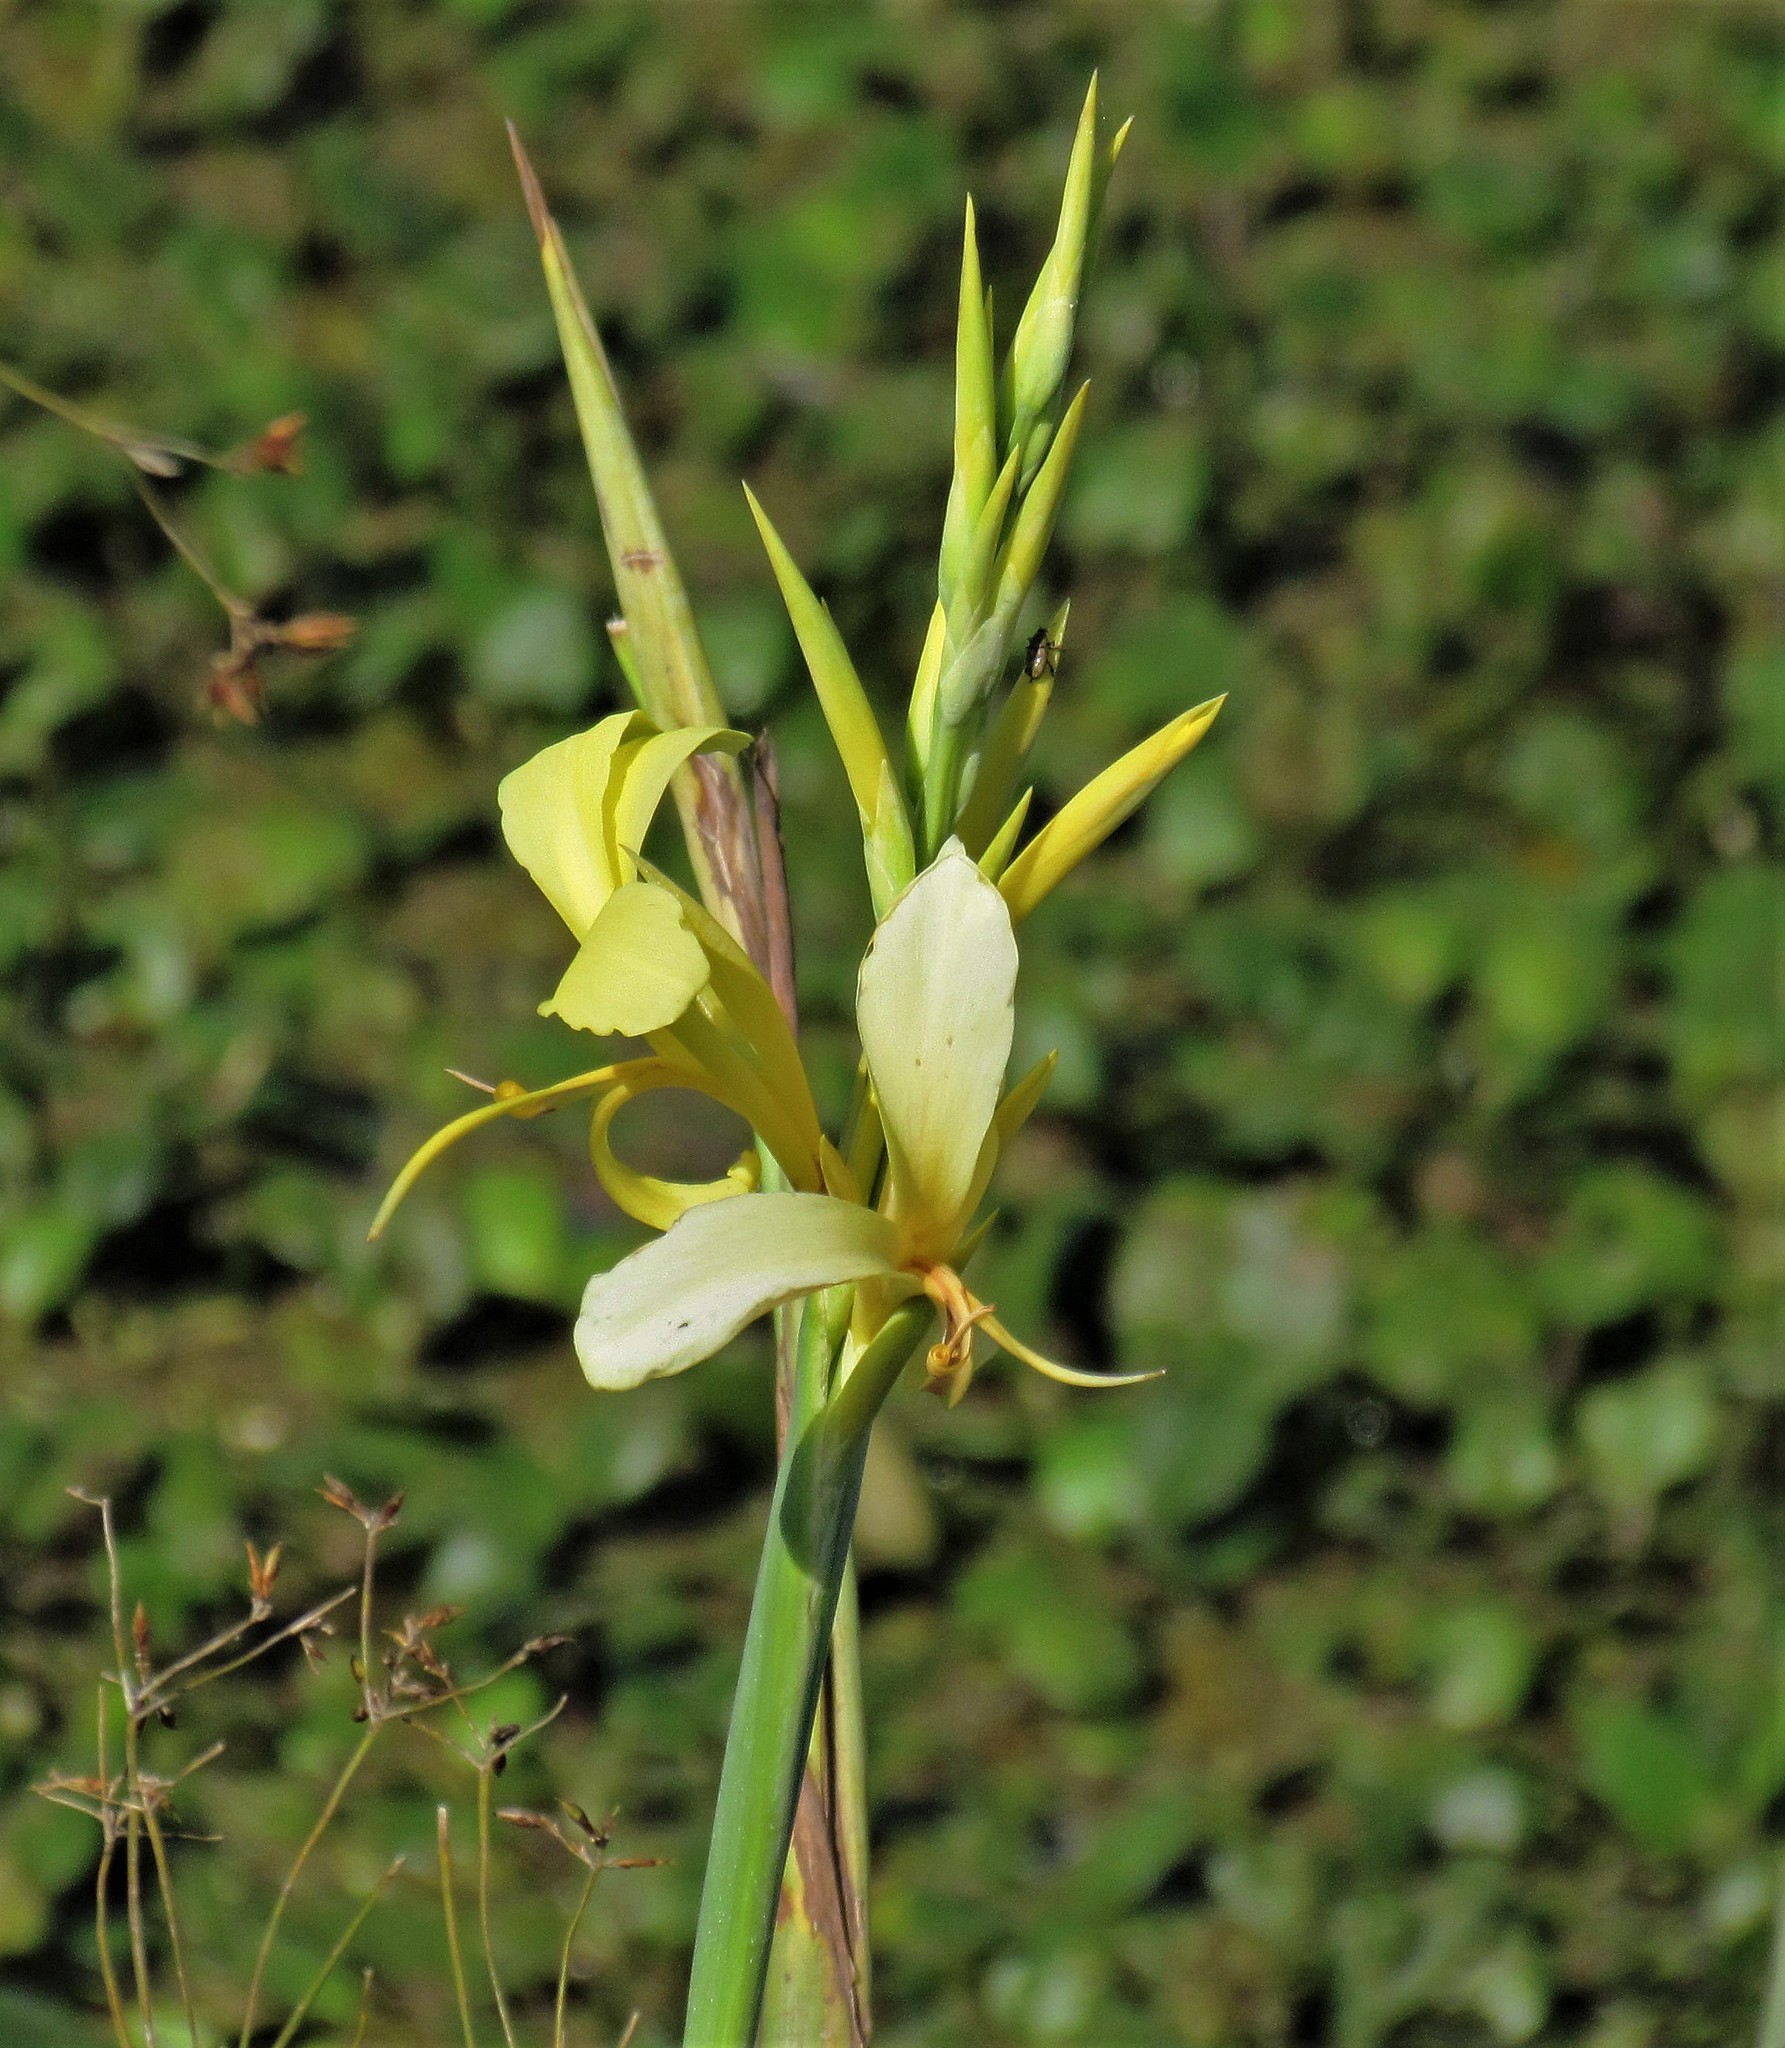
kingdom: Plantae
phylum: Tracheophyta
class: Liliopsida
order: Zingiberales
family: Cannaceae
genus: Canna
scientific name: Canna glauca
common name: Louisiana canna
